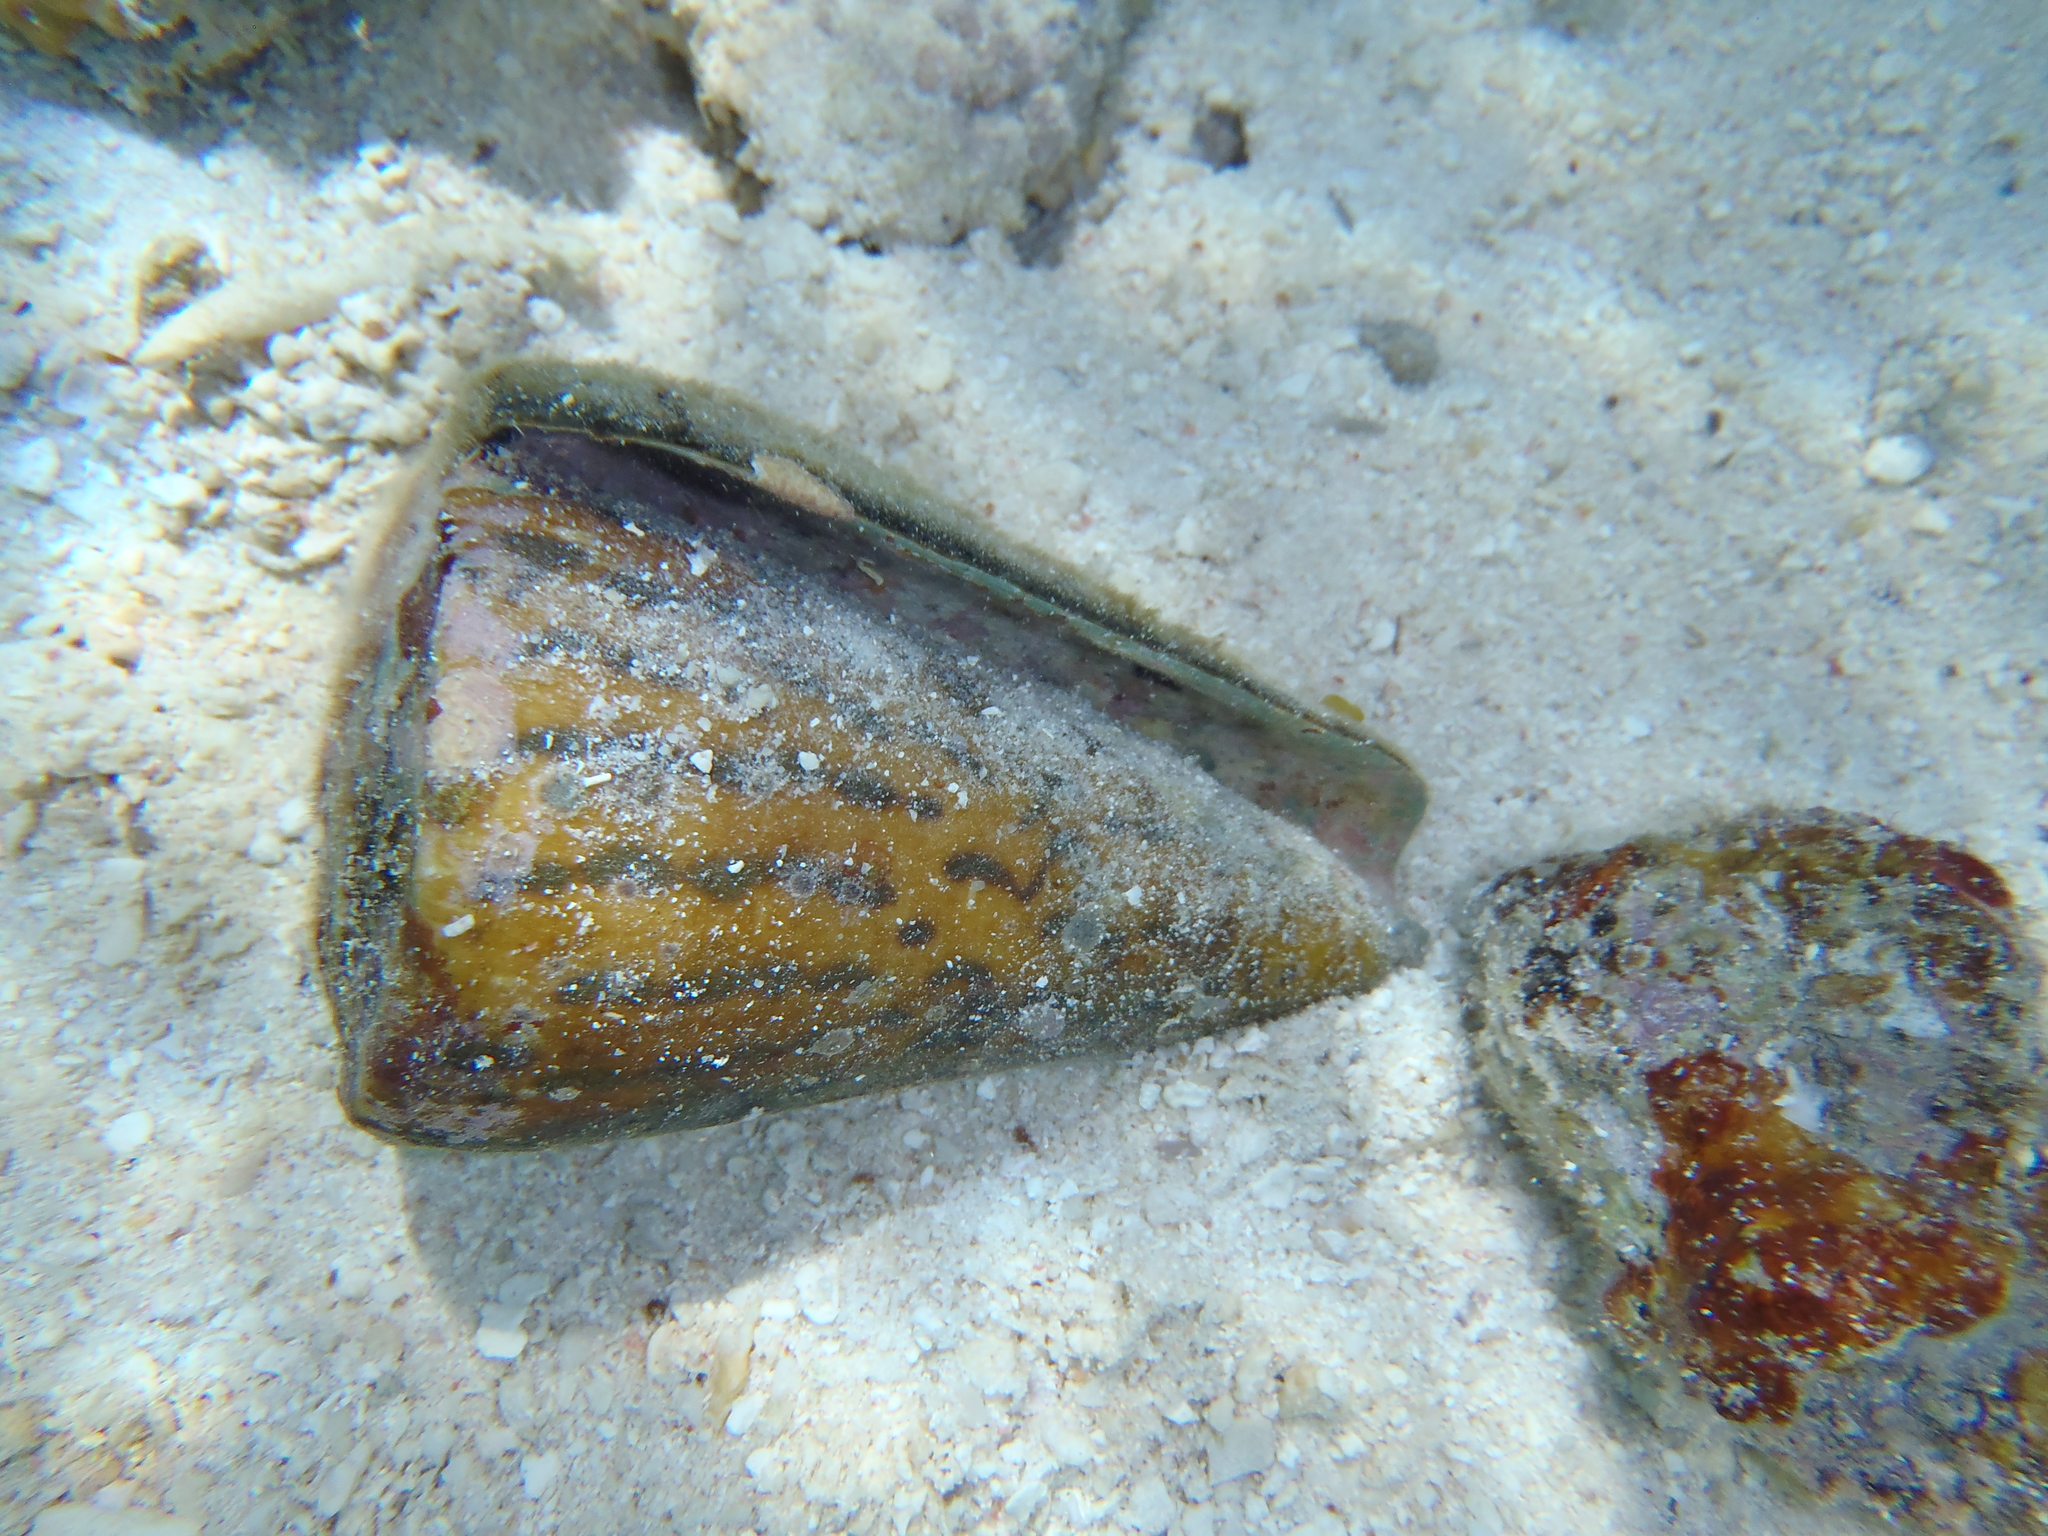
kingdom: Animalia
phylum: Mollusca
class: Gastropoda
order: Neogastropoda
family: Conidae
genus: Conus
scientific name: Conus leopardus
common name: Leopard cone
